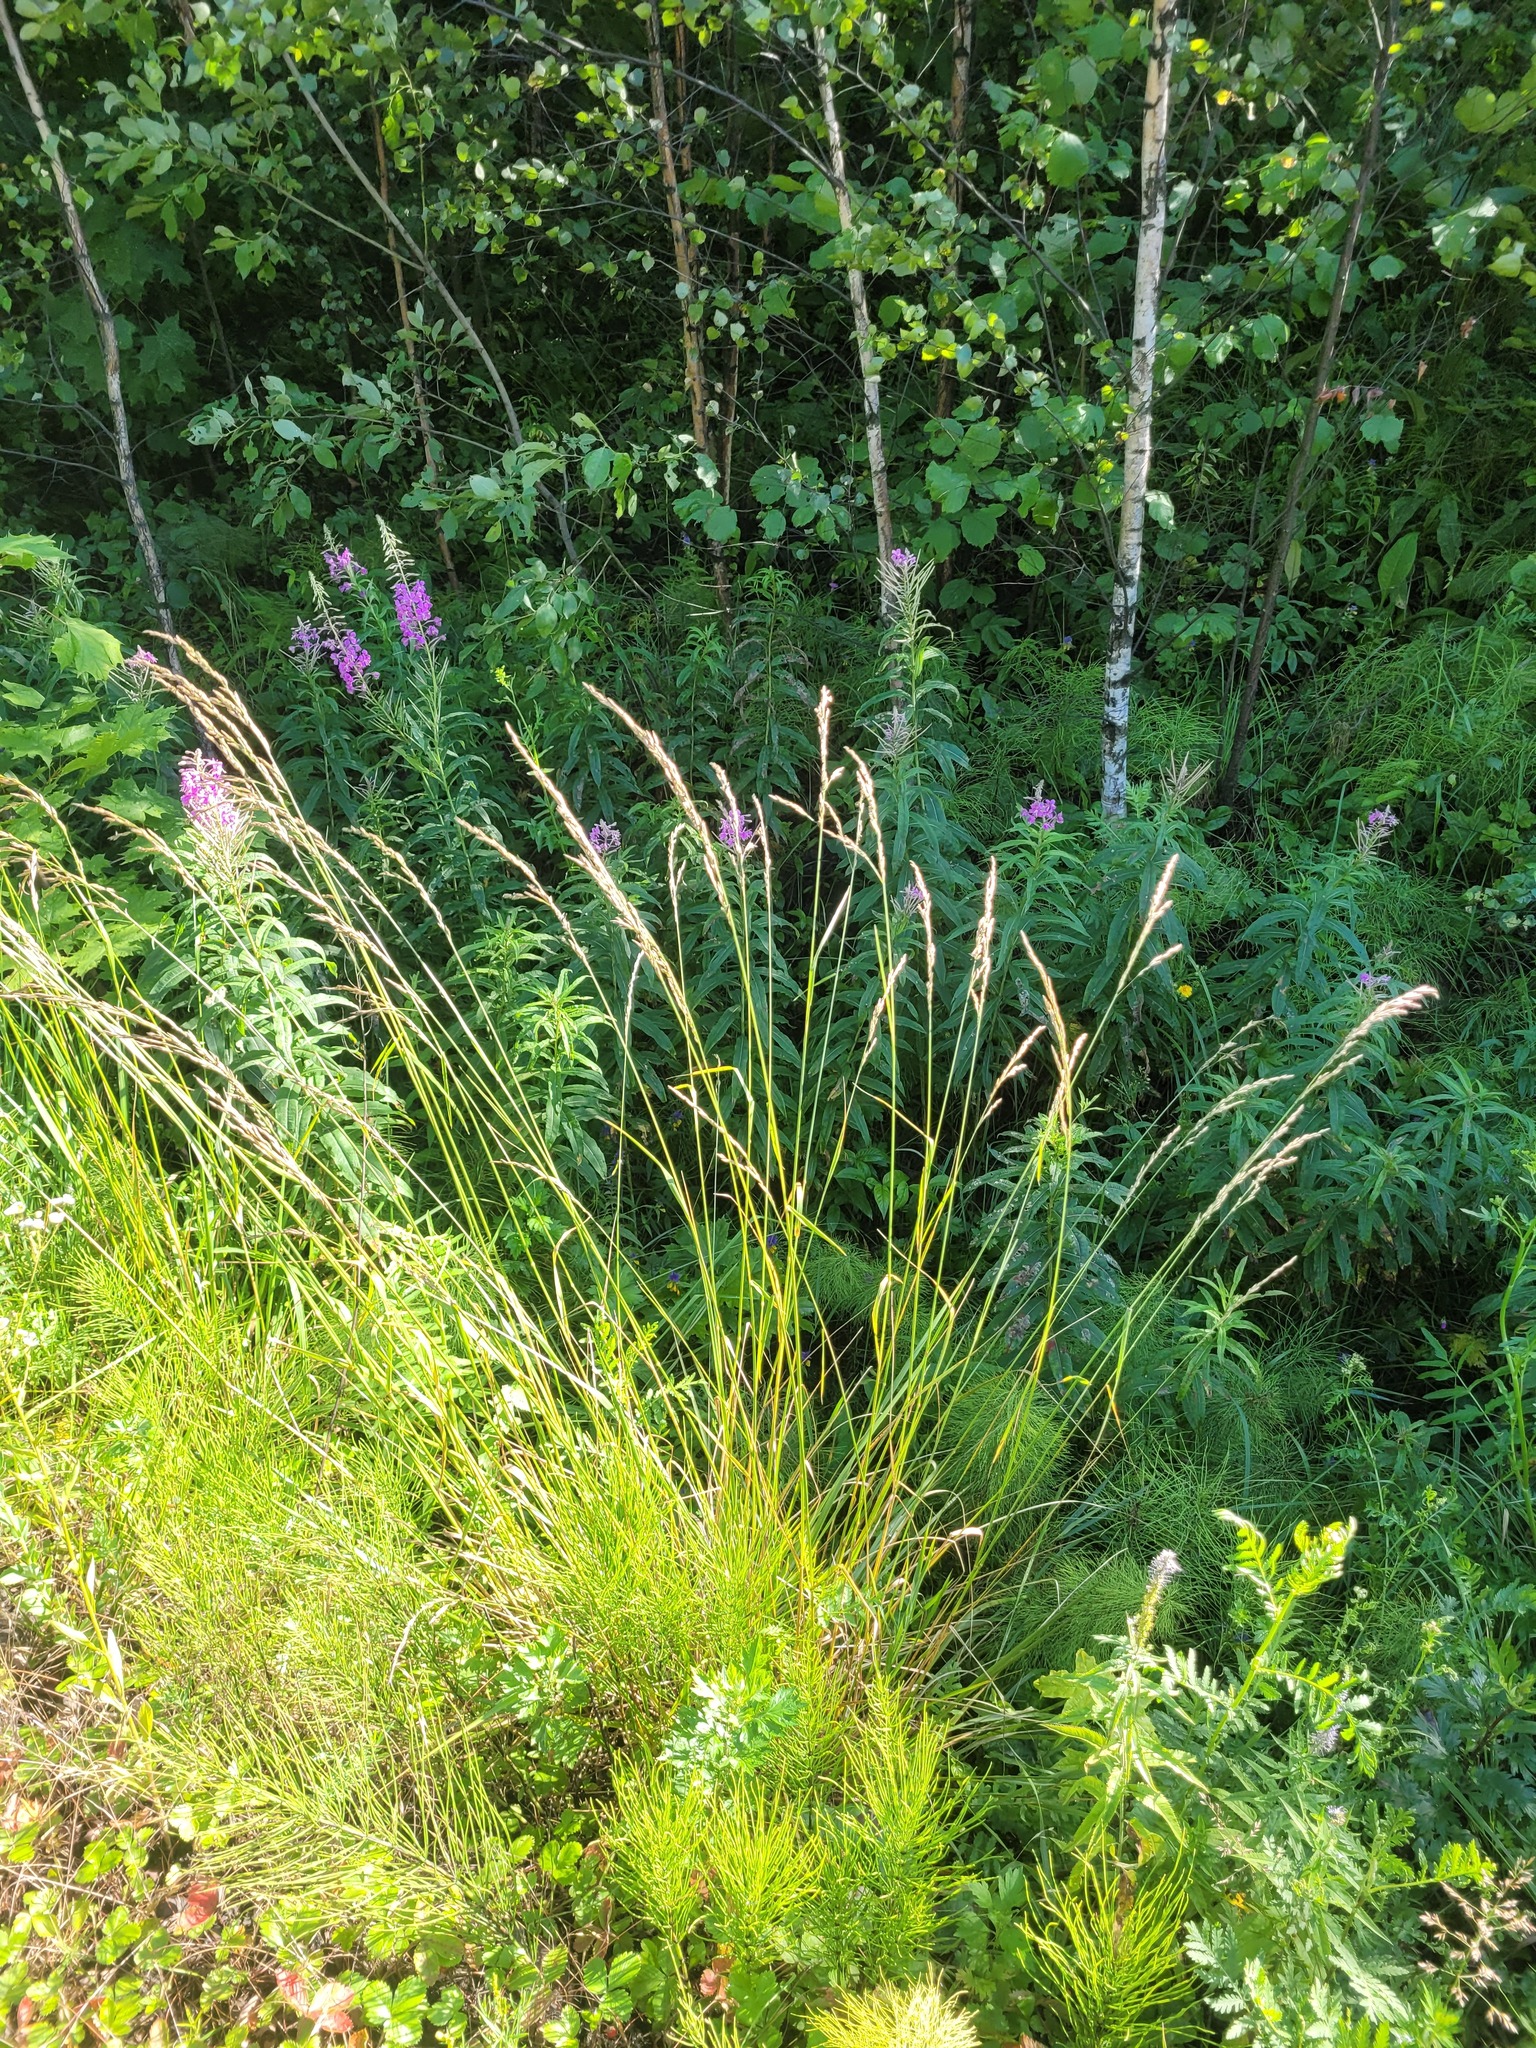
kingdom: Plantae
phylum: Tracheophyta
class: Liliopsida
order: Poales
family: Poaceae
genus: Lolium
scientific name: Lolium arundinaceum
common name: Reed fescue
